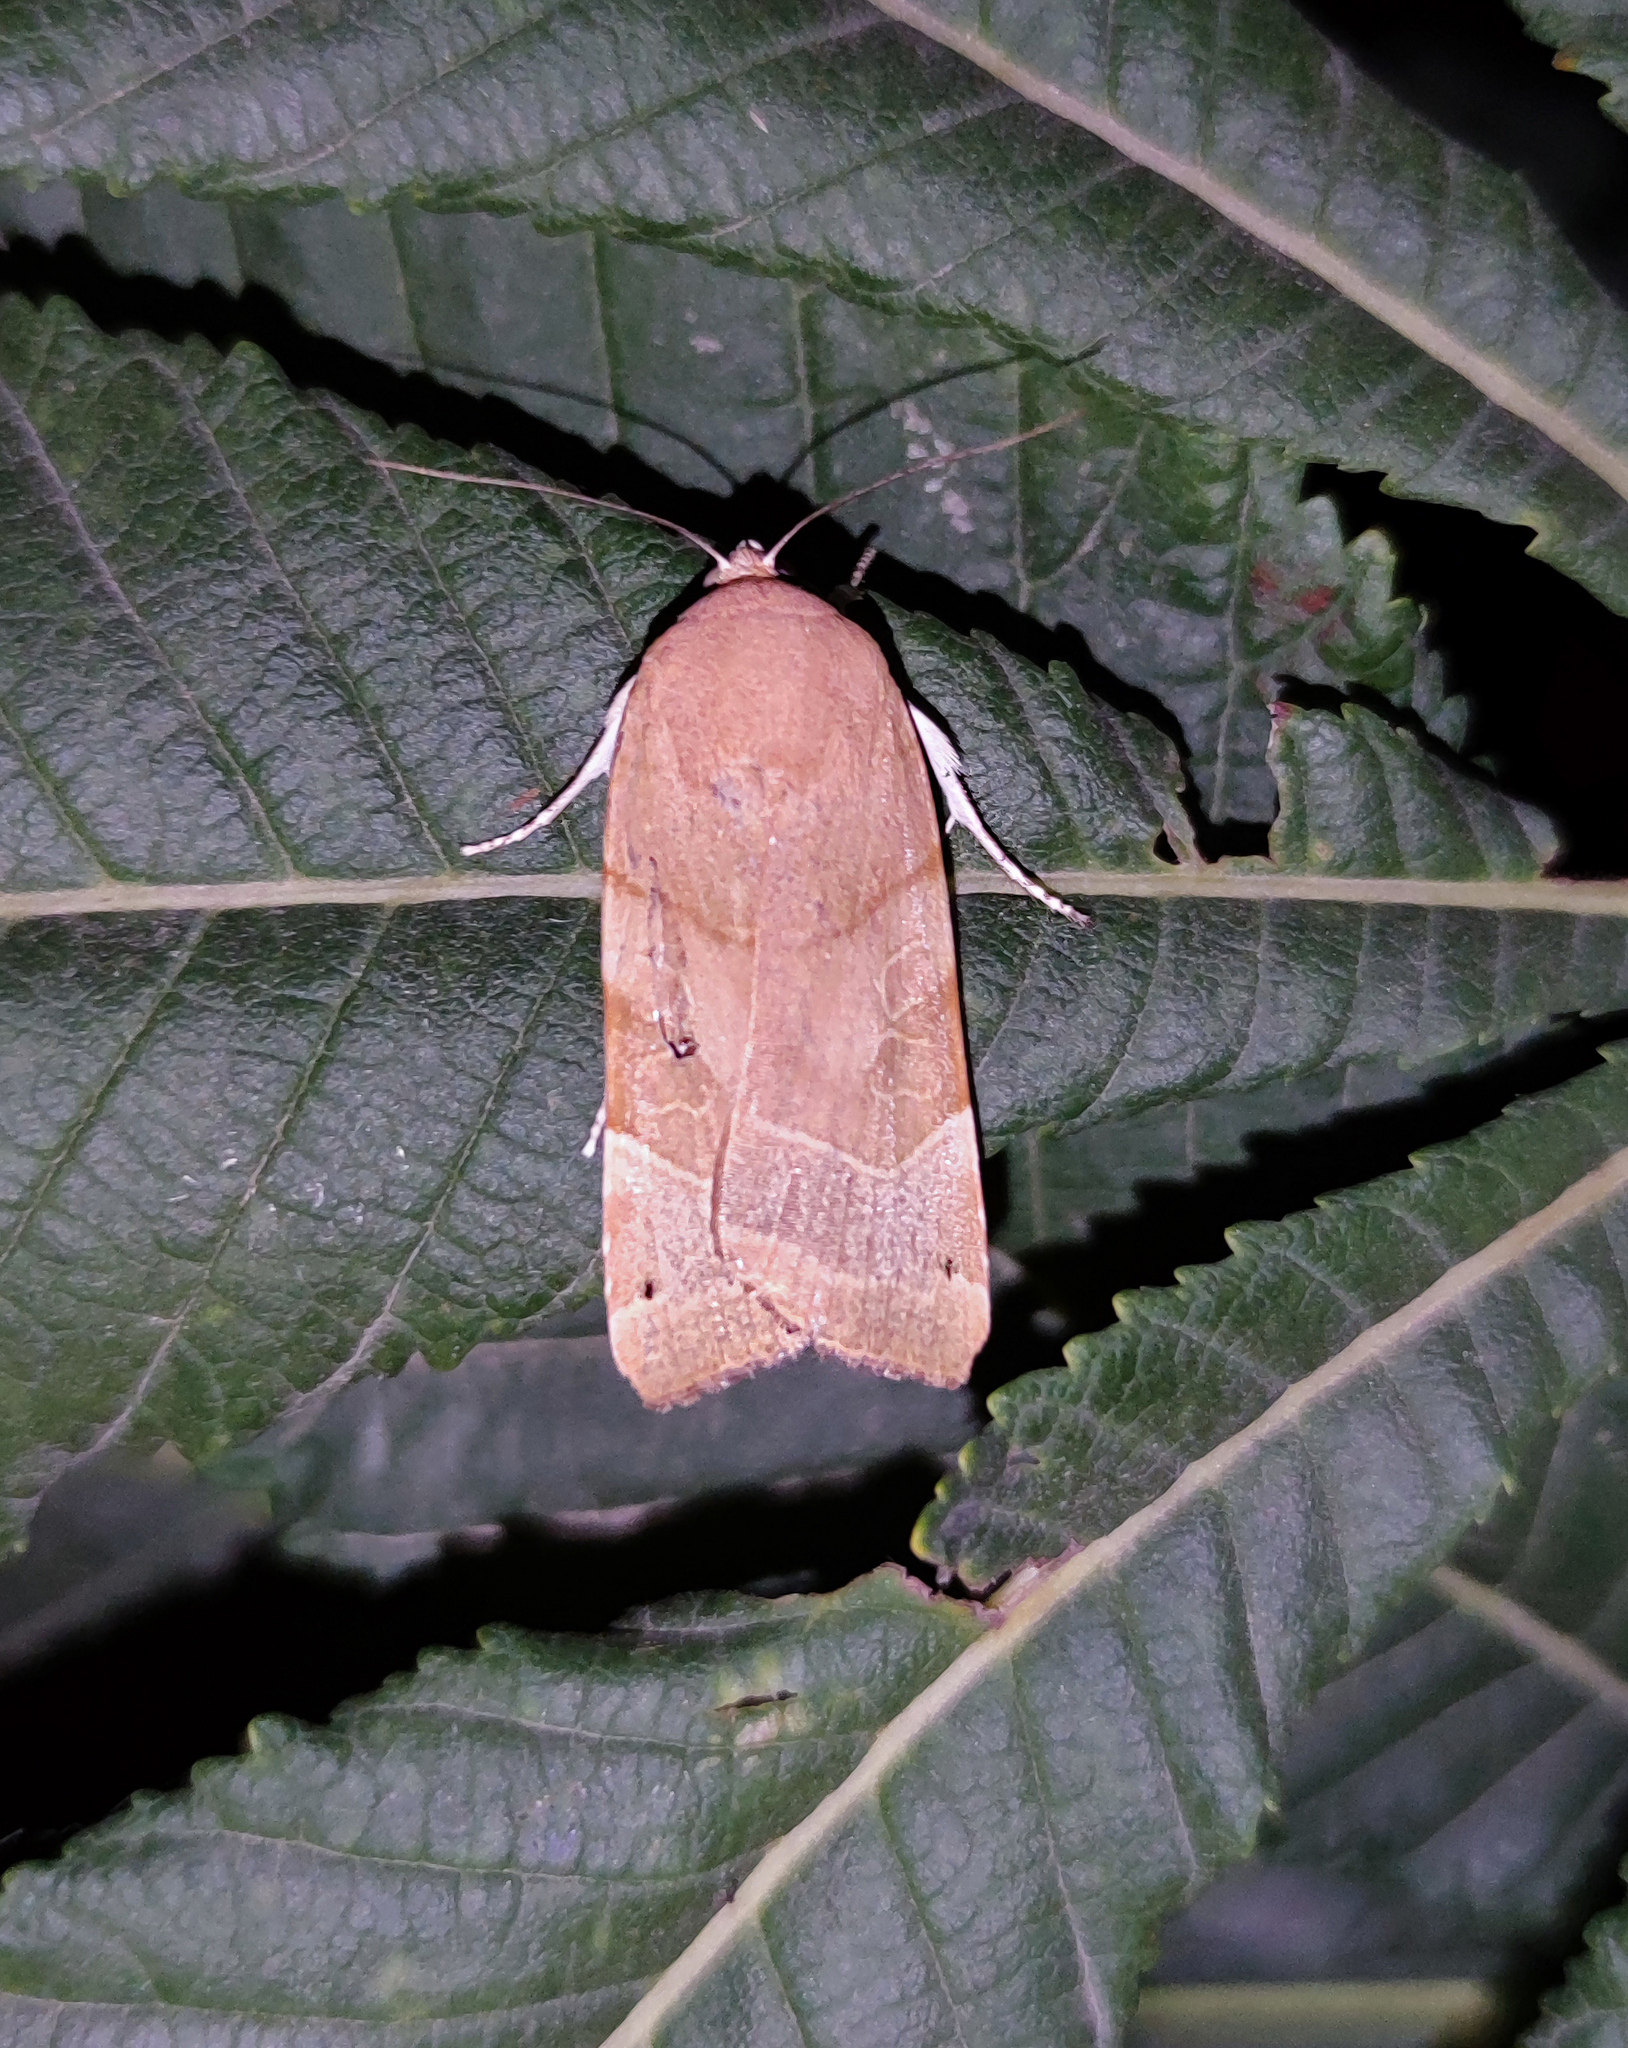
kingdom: Animalia
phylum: Arthropoda
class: Insecta
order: Lepidoptera
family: Noctuidae
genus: Noctua
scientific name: Noctua fimbriata
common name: Broad-bordered yellow underwing
